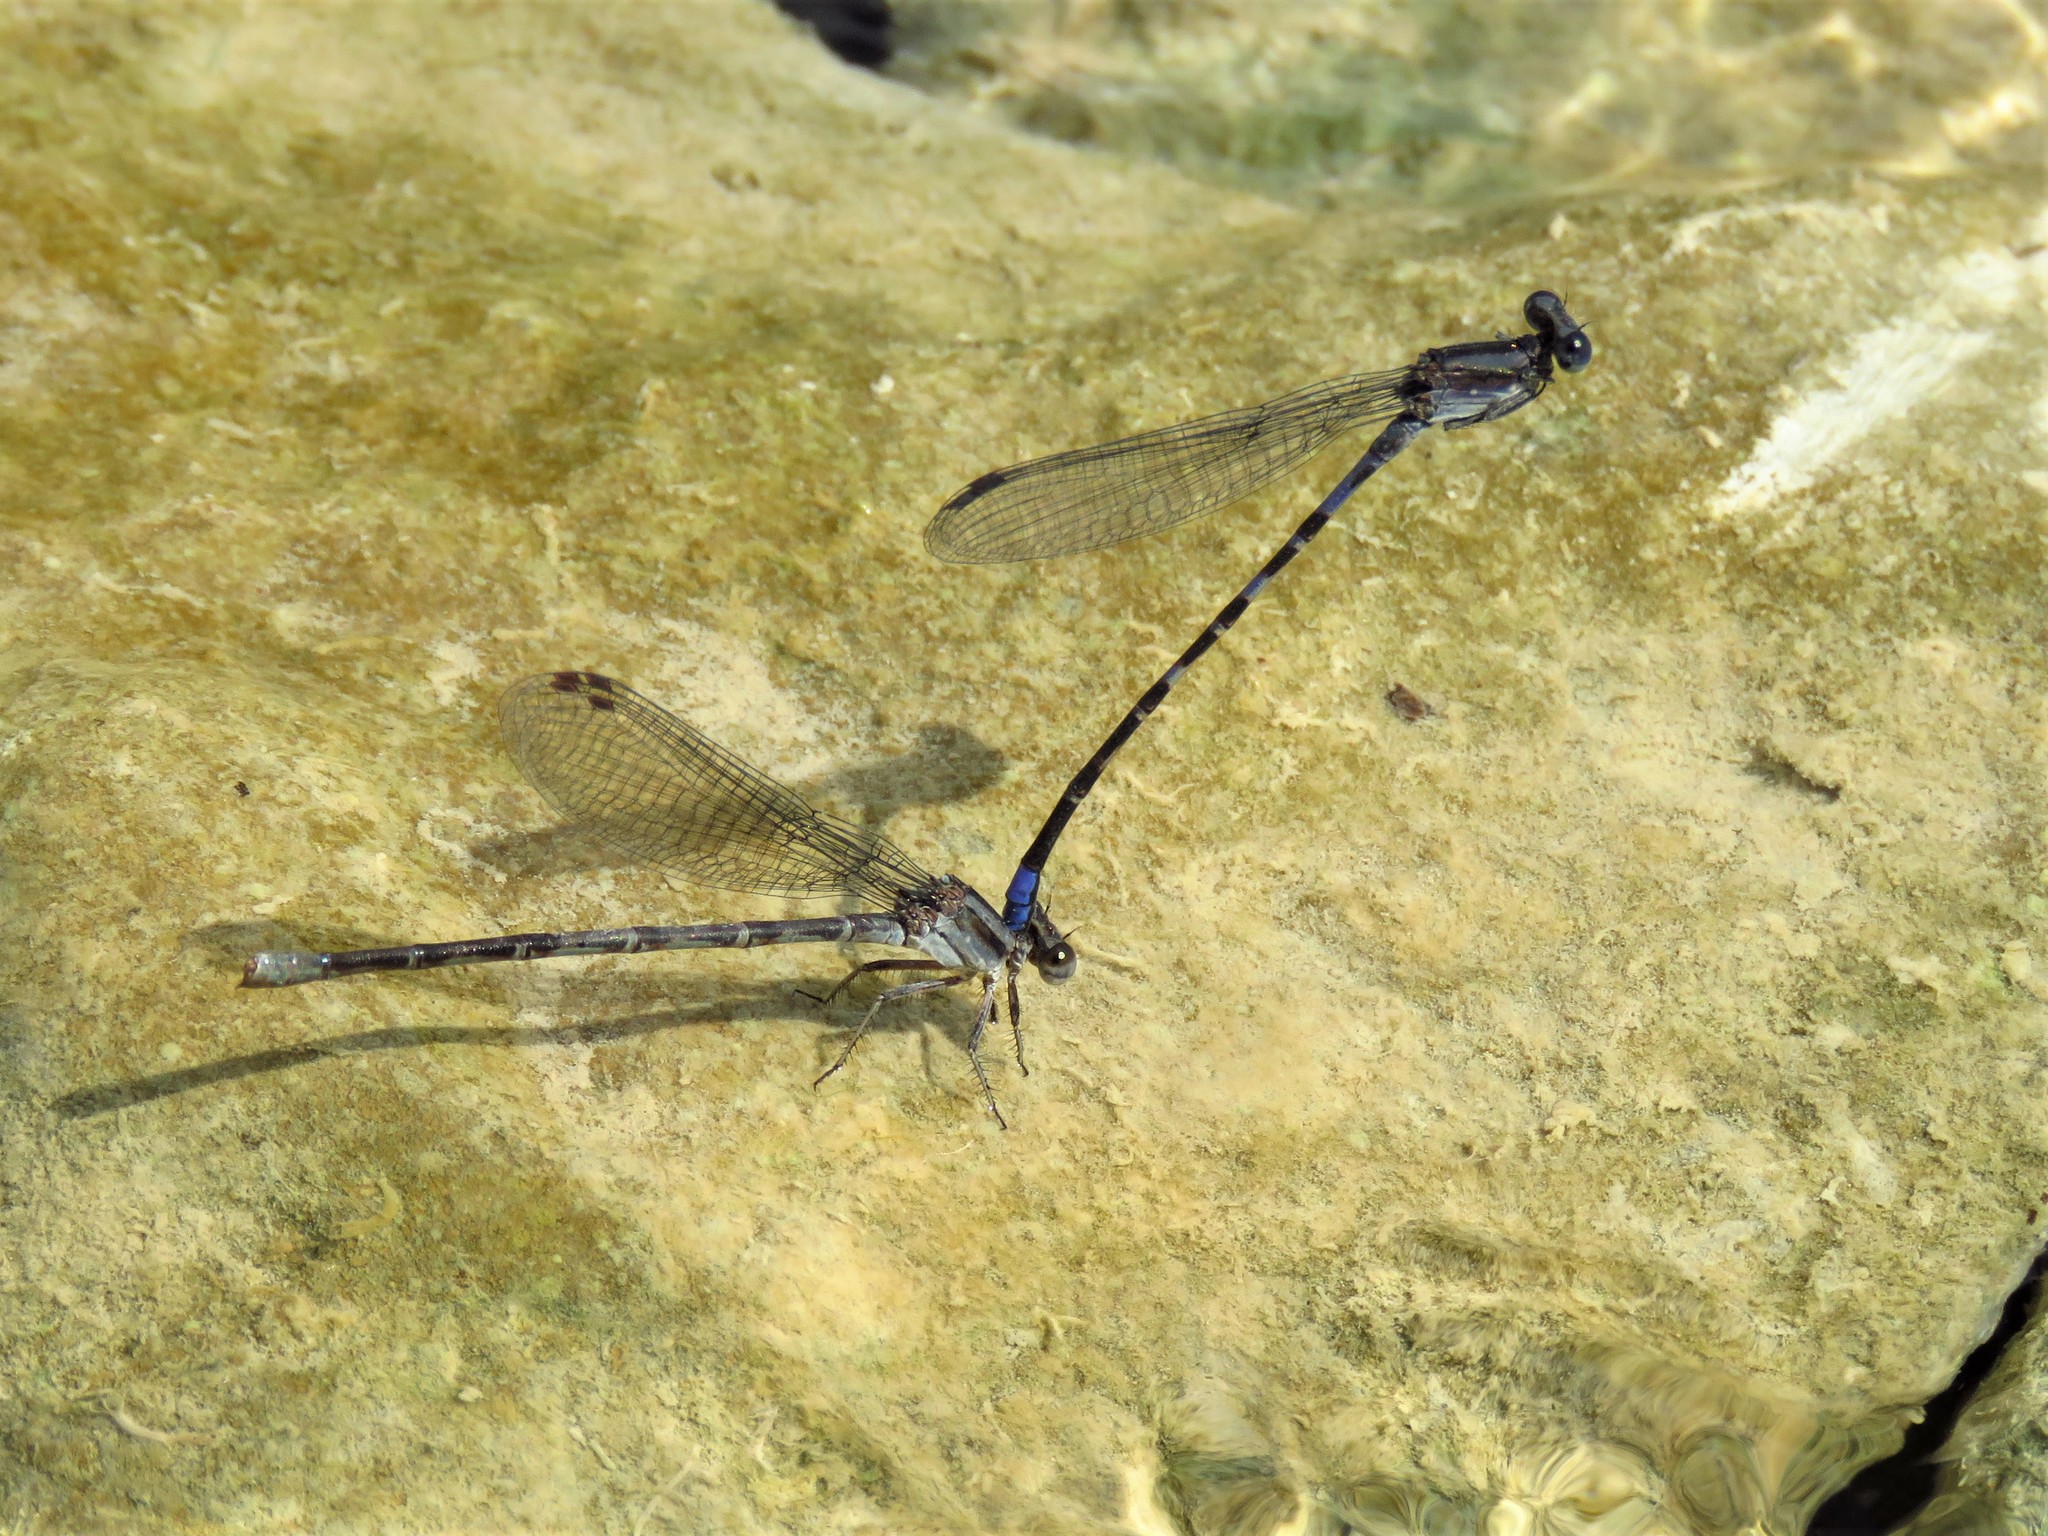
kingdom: Animalia
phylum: Arthropoda
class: Insecta
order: Odonata
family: Coenagrionidae
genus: Argia
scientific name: Argia immunda
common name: Kiowa dancer
